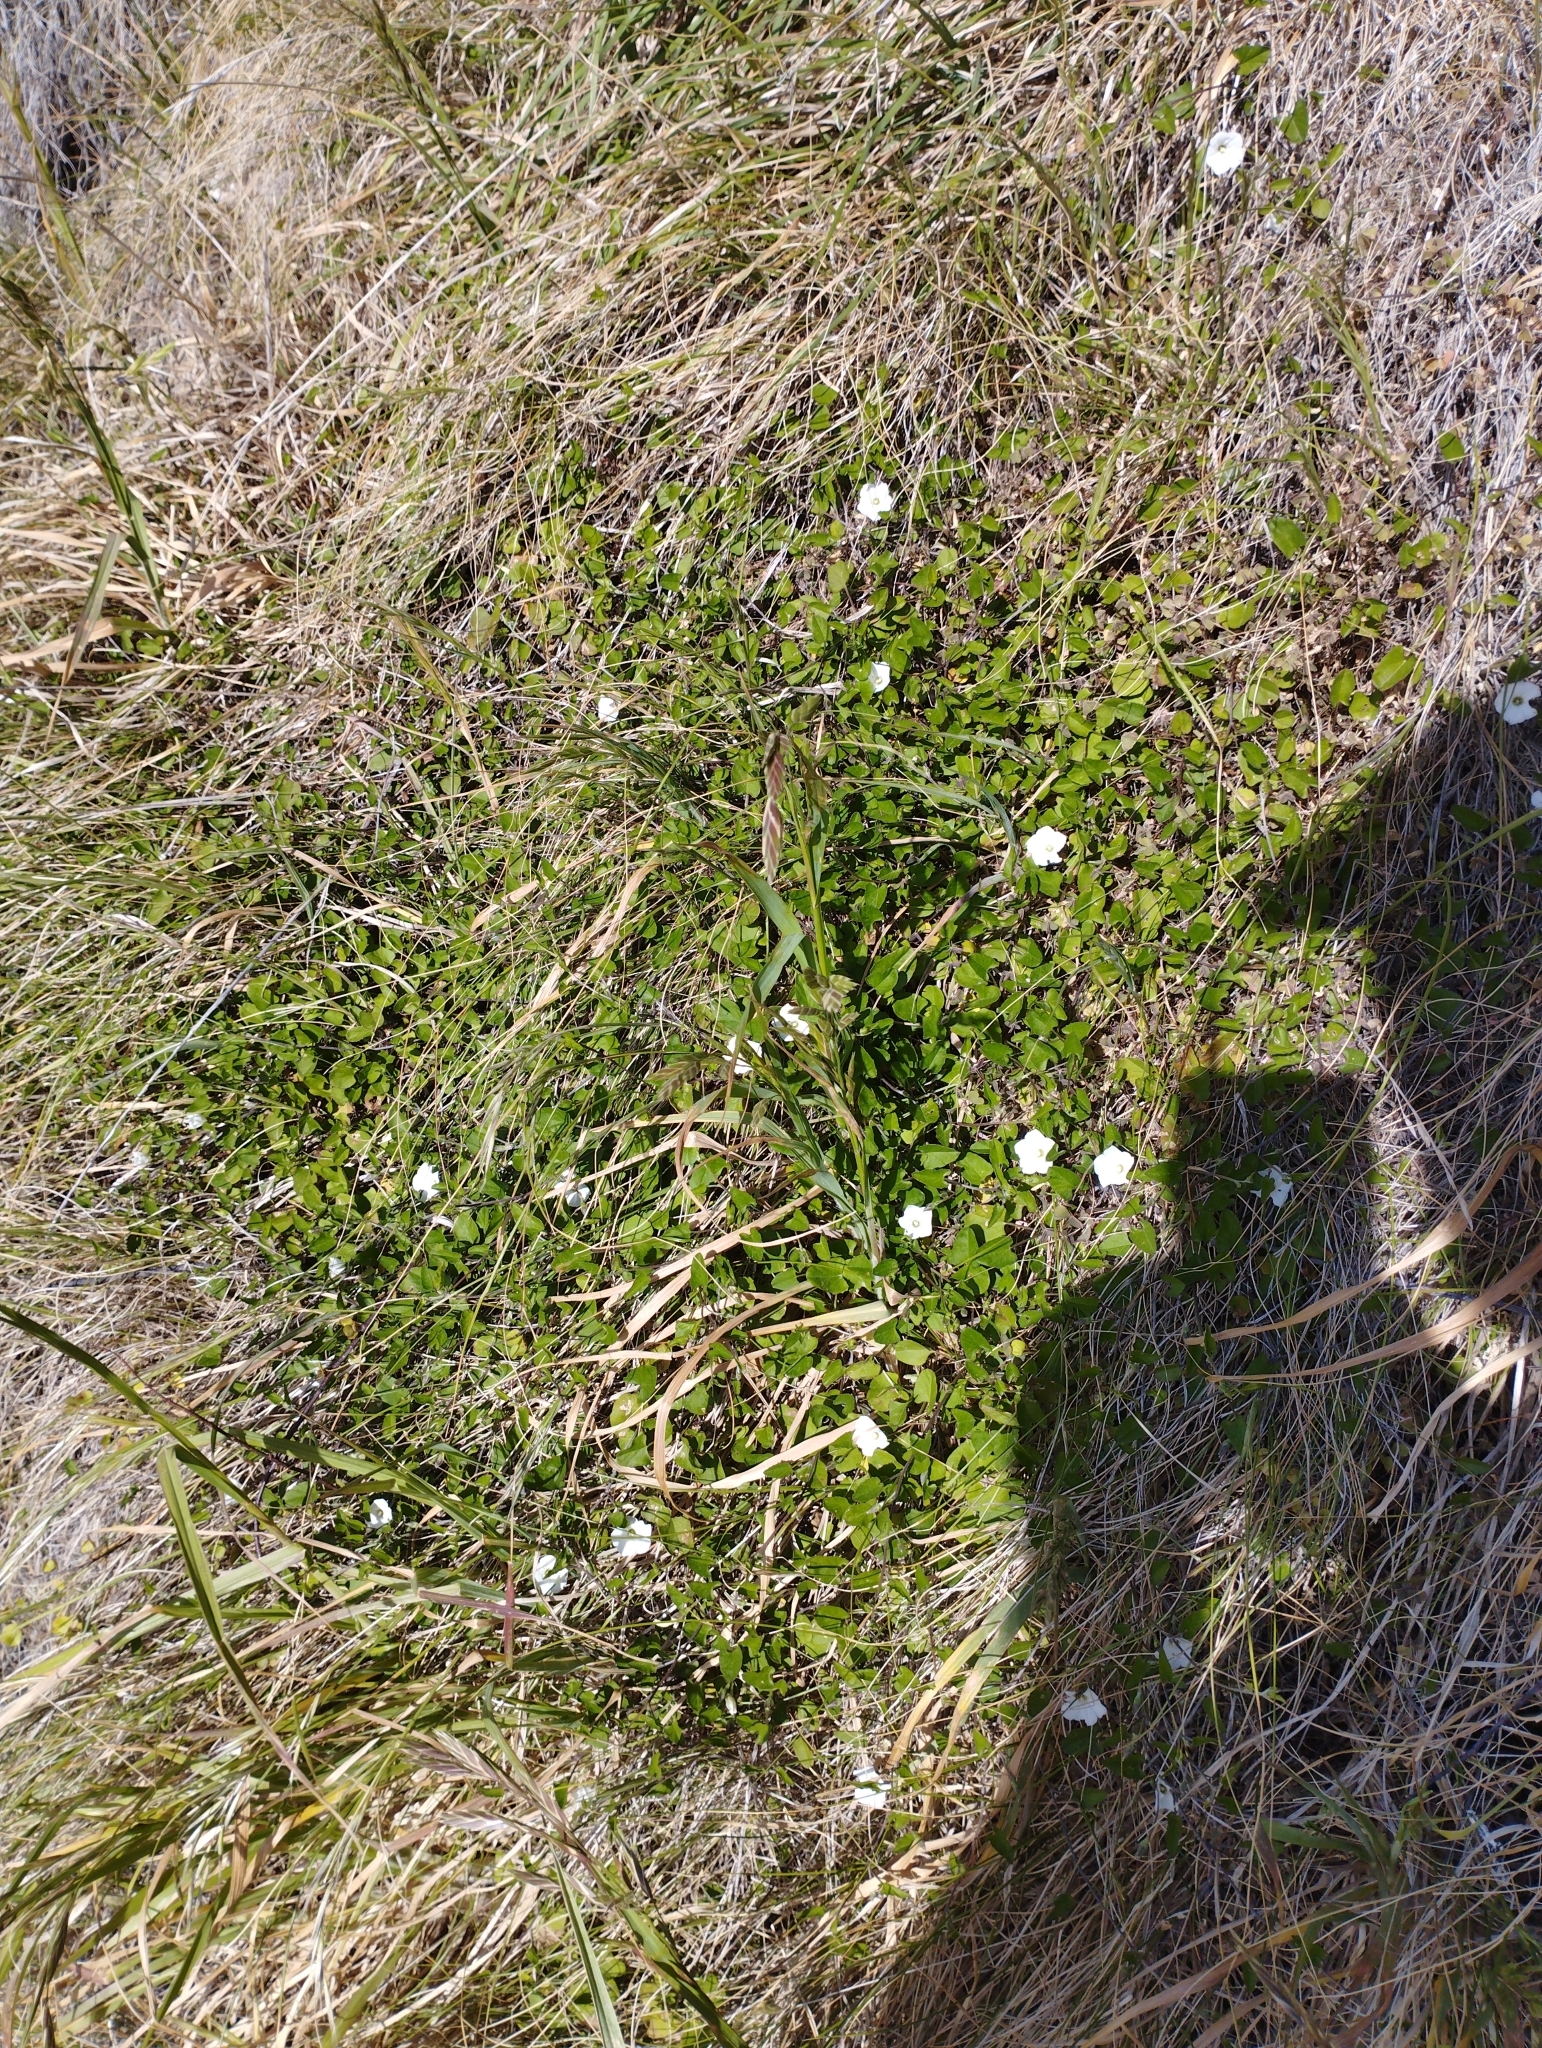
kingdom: Plantae
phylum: Tracheophyta
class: Magnoliopsida
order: Solanales
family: Convolvulaceae
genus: Convolvulus
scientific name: Convolvulus waitaha
